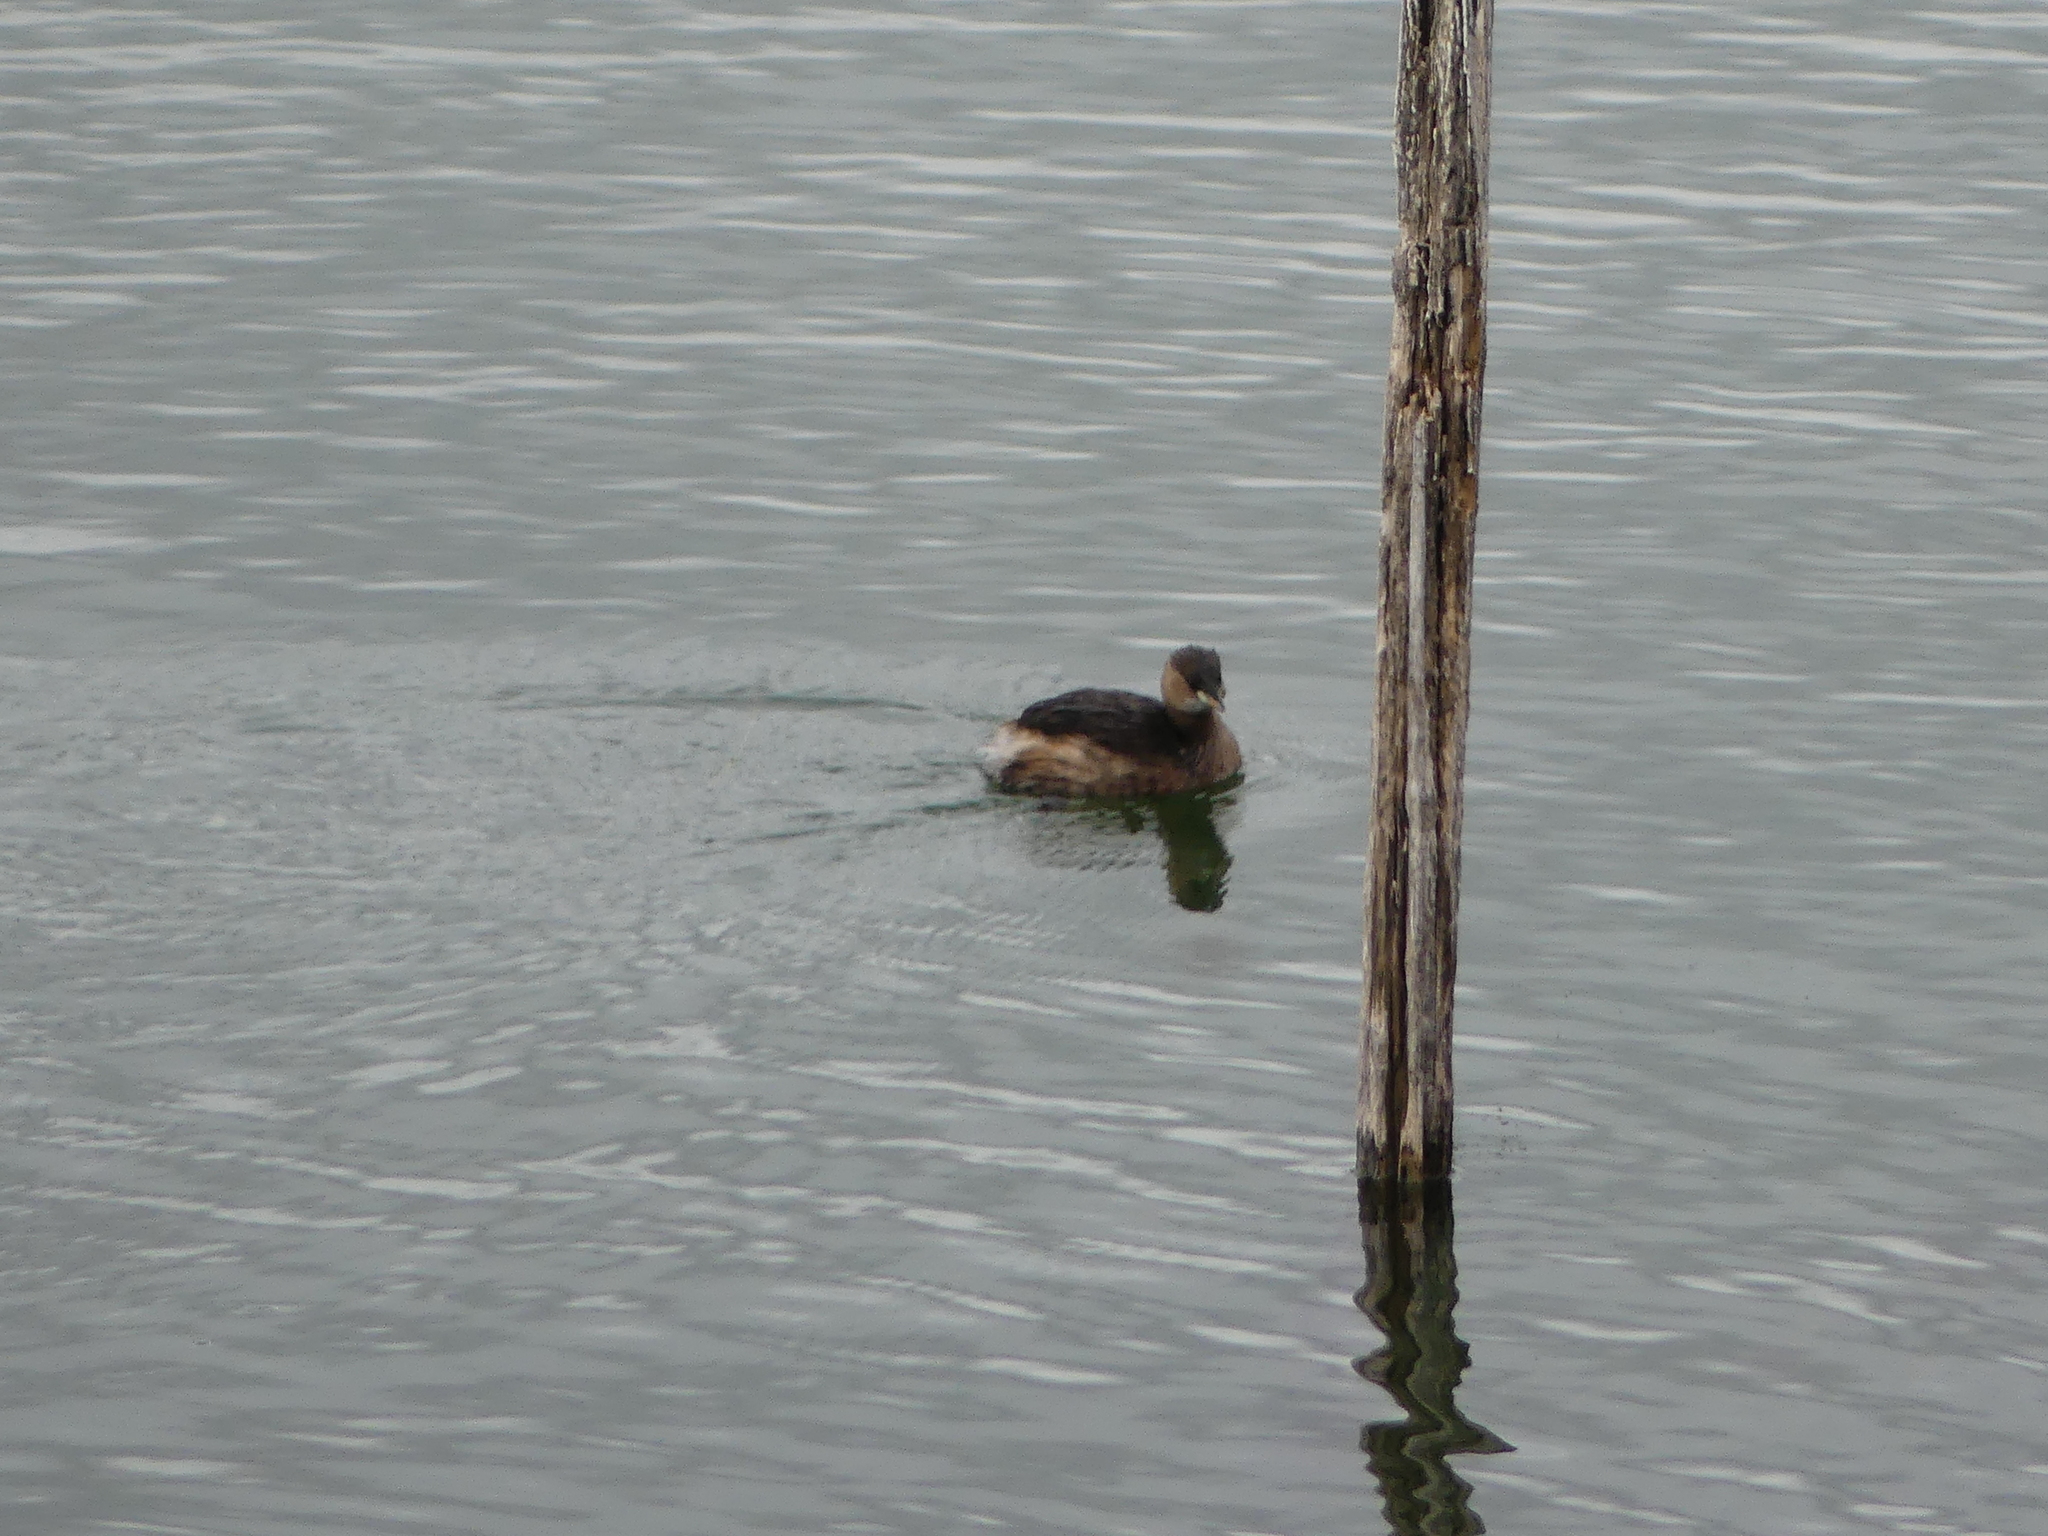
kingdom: Animalia
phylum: Chordata
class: Aves
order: Podicipediformes
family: Podicipedidae
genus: Tachybaptus
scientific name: Tachybaptus ruficollis
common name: Little grebe
